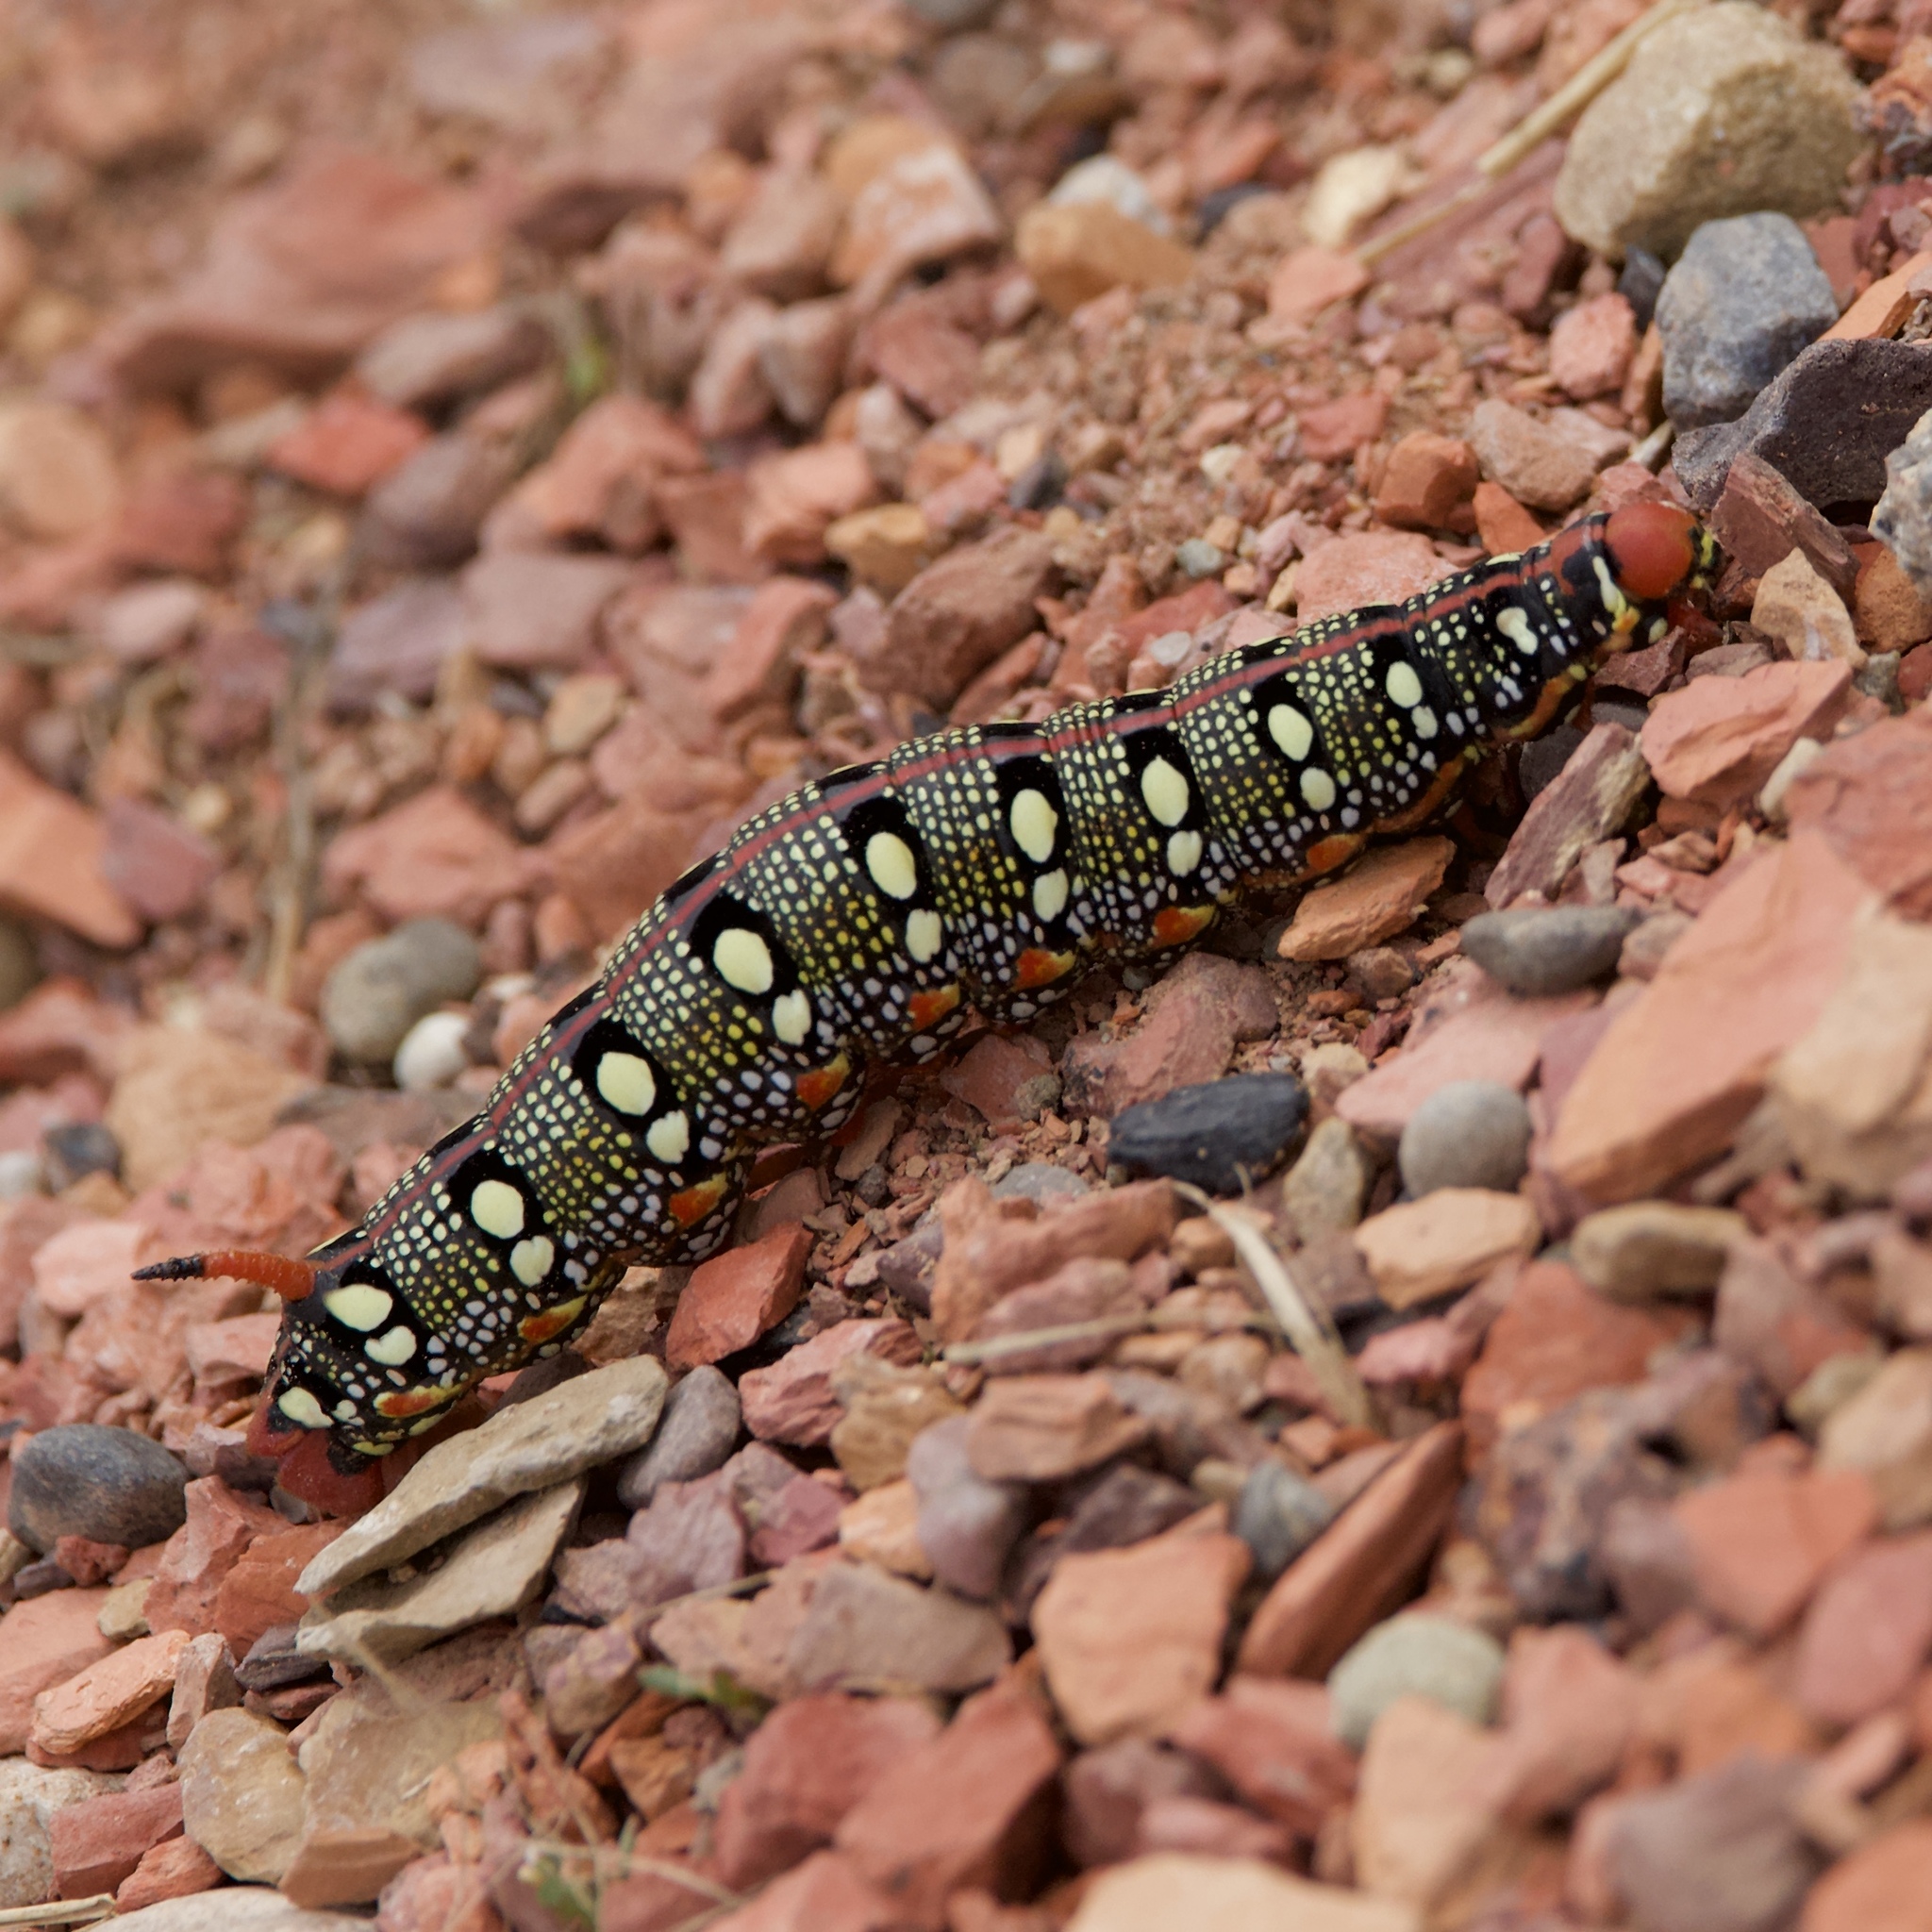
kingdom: Animalia
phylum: Arthropoda
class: Insecta
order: Lepidoptera
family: Sphingidae
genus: Hyles
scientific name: Hyles euphorbiae
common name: Spurge hawk-moth
